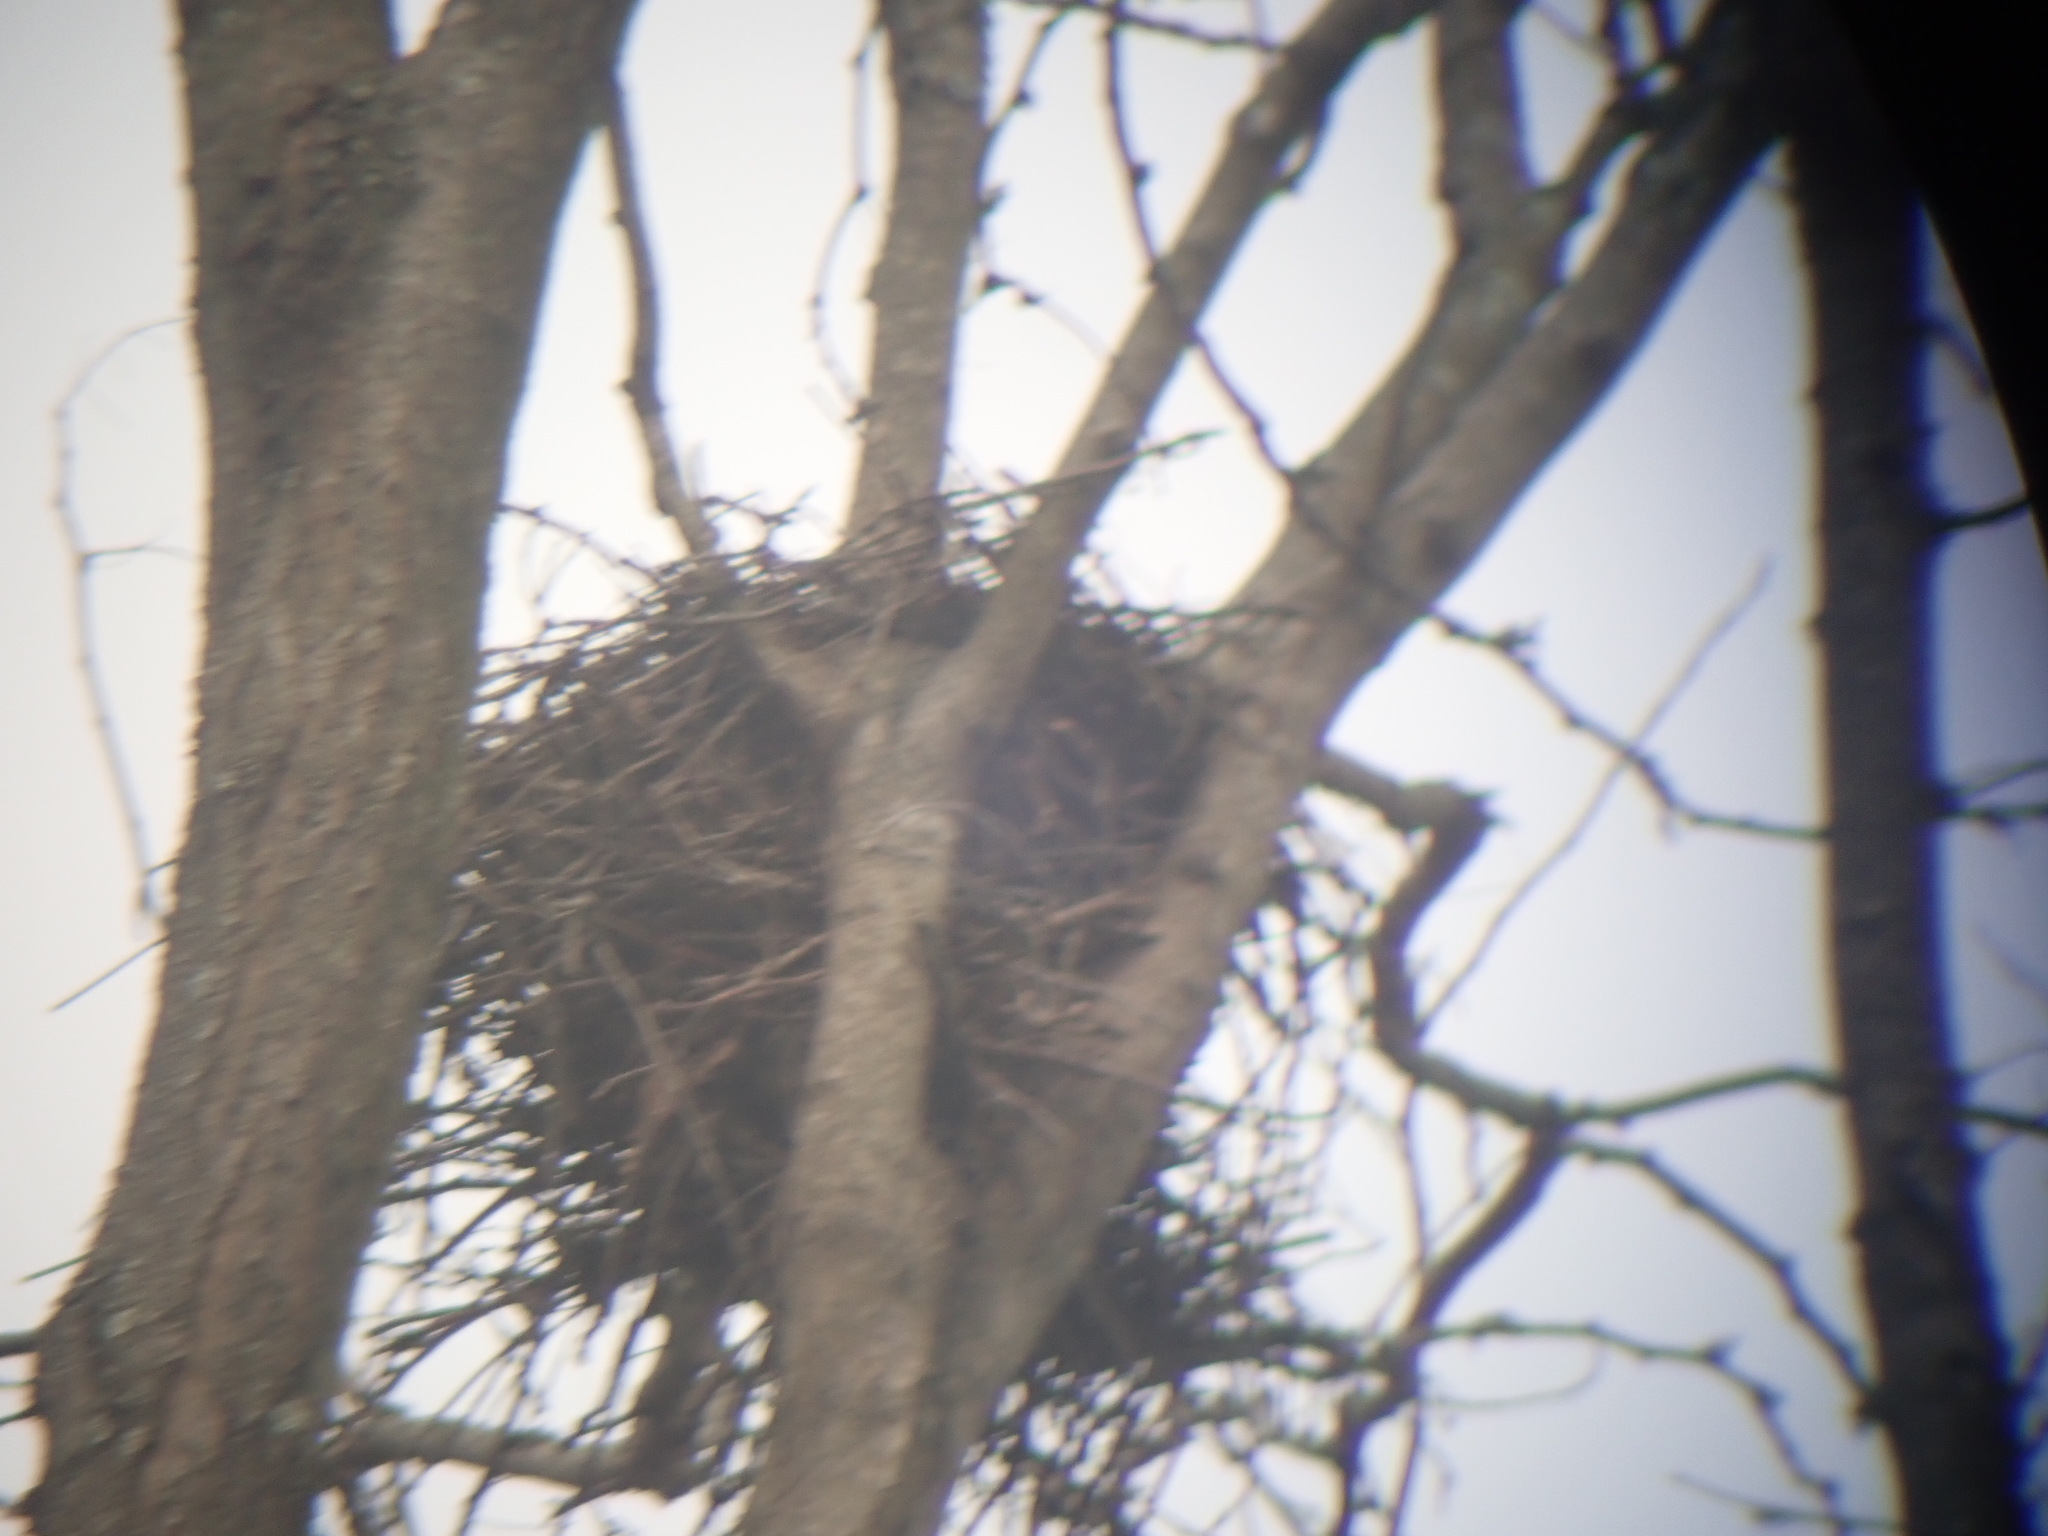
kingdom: Animalia
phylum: Chordata
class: Aves
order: Accipitriformes
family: Accipitridae
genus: Accipiter
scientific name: Accipiter cooperii
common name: Cooper's hawk
